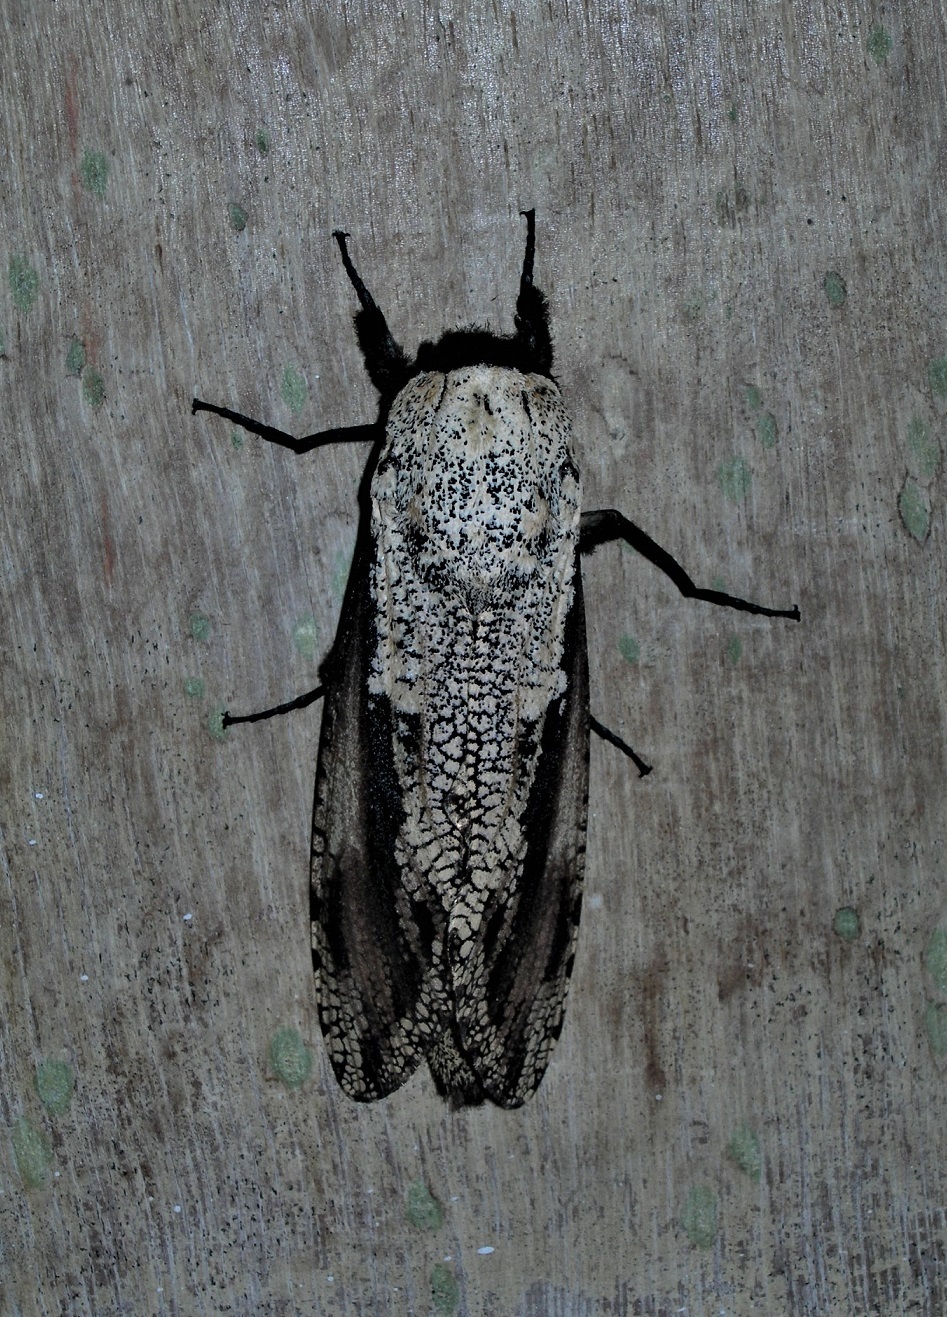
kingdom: Animalia
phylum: Arthropoda
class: Insecta
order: Lepidoptera
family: Cossidae
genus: Morpheis
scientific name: Morpheis xylotribus
